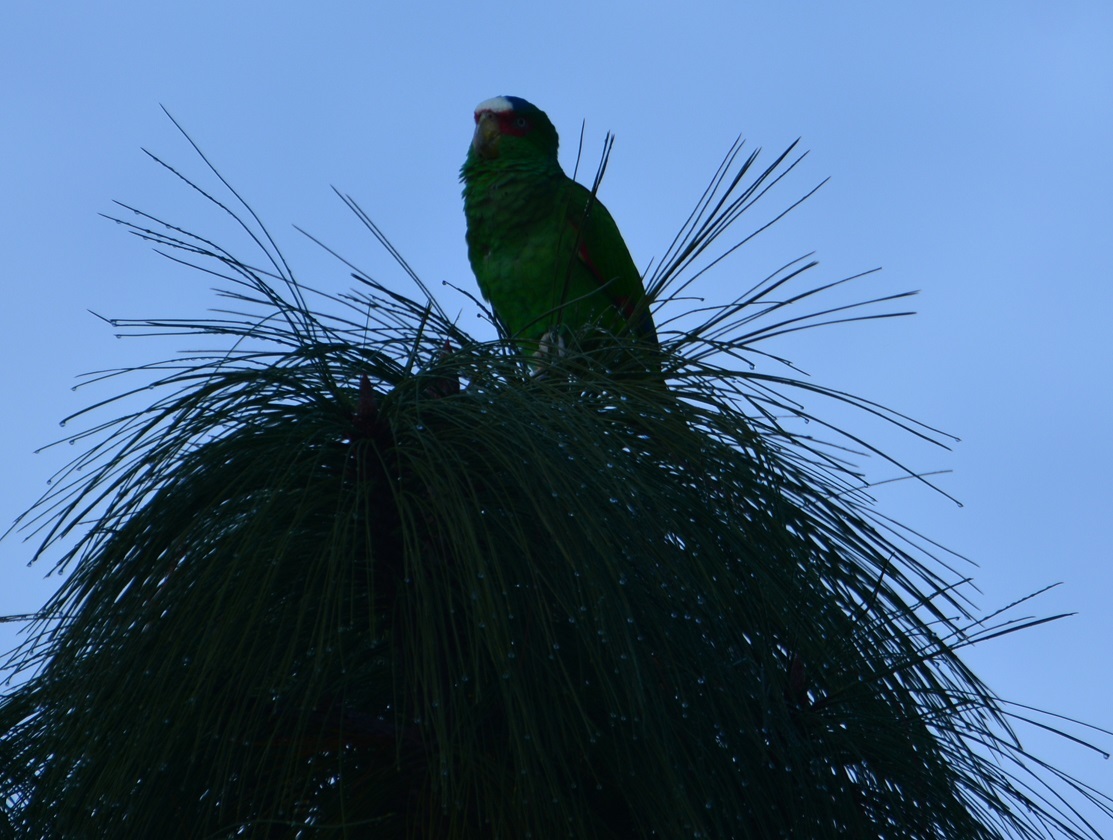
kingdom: Animalia
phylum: Chordata
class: Aves
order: Psittaciformes
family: Psittacidae
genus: Amazona
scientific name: Amazona albifrons
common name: White-fronted amazon
